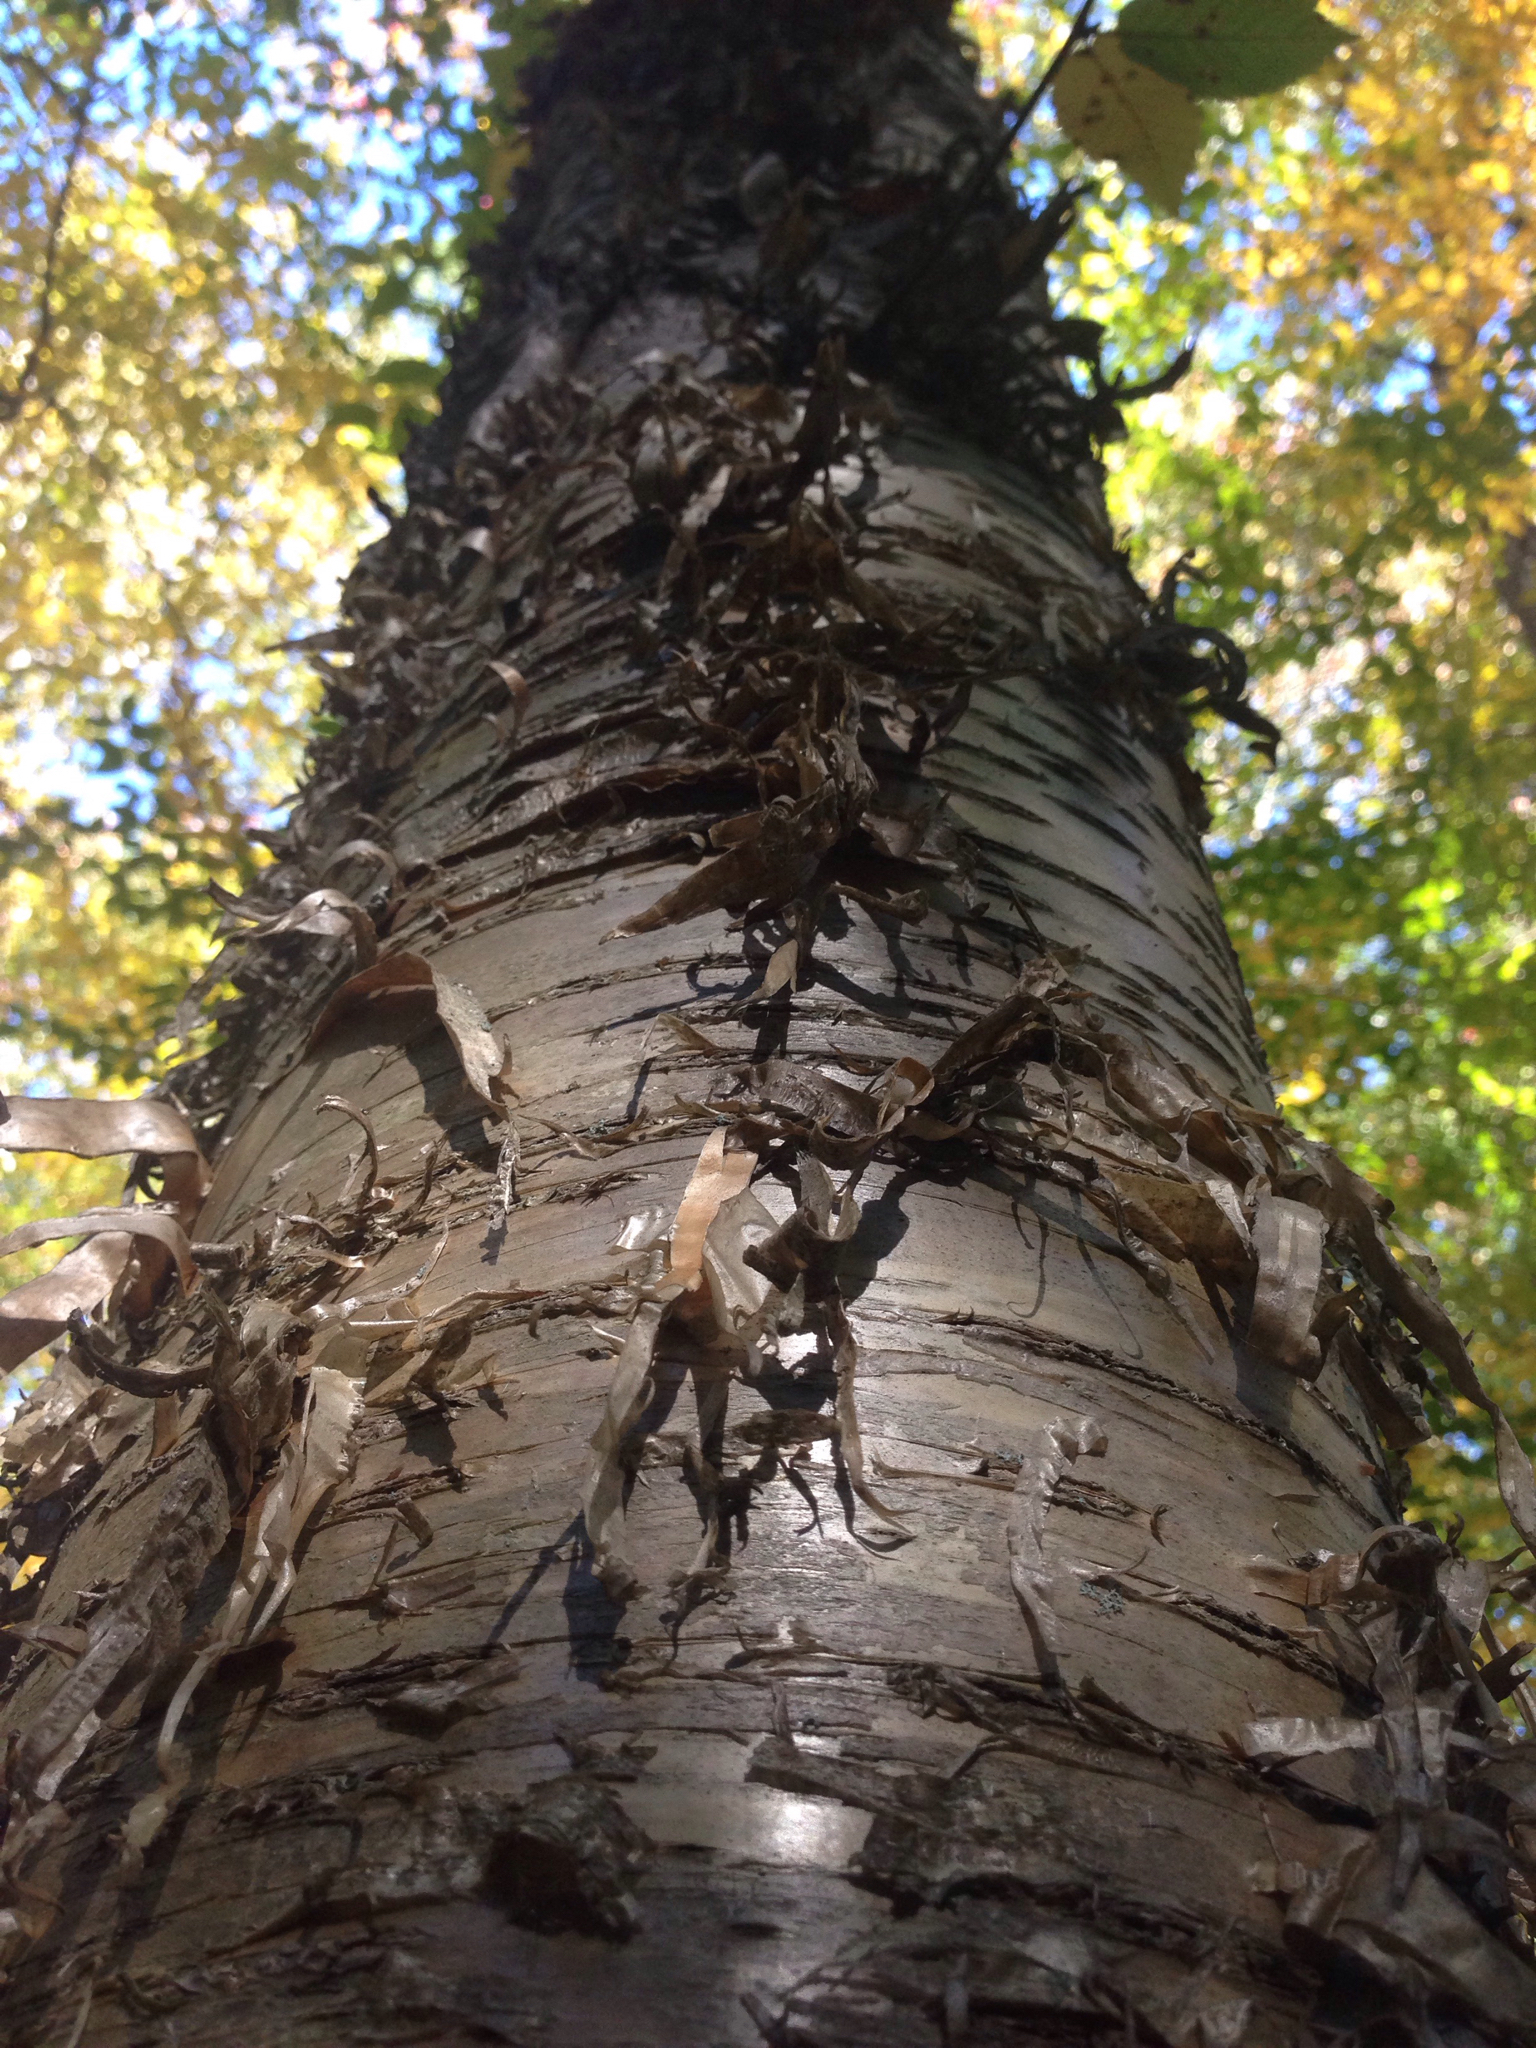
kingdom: Plantae
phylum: Tracheophyta
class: Magnoliopsida
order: Fagales
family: Betulaceae
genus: Betula
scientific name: Betula alleghaniensis
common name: Yellow birch
